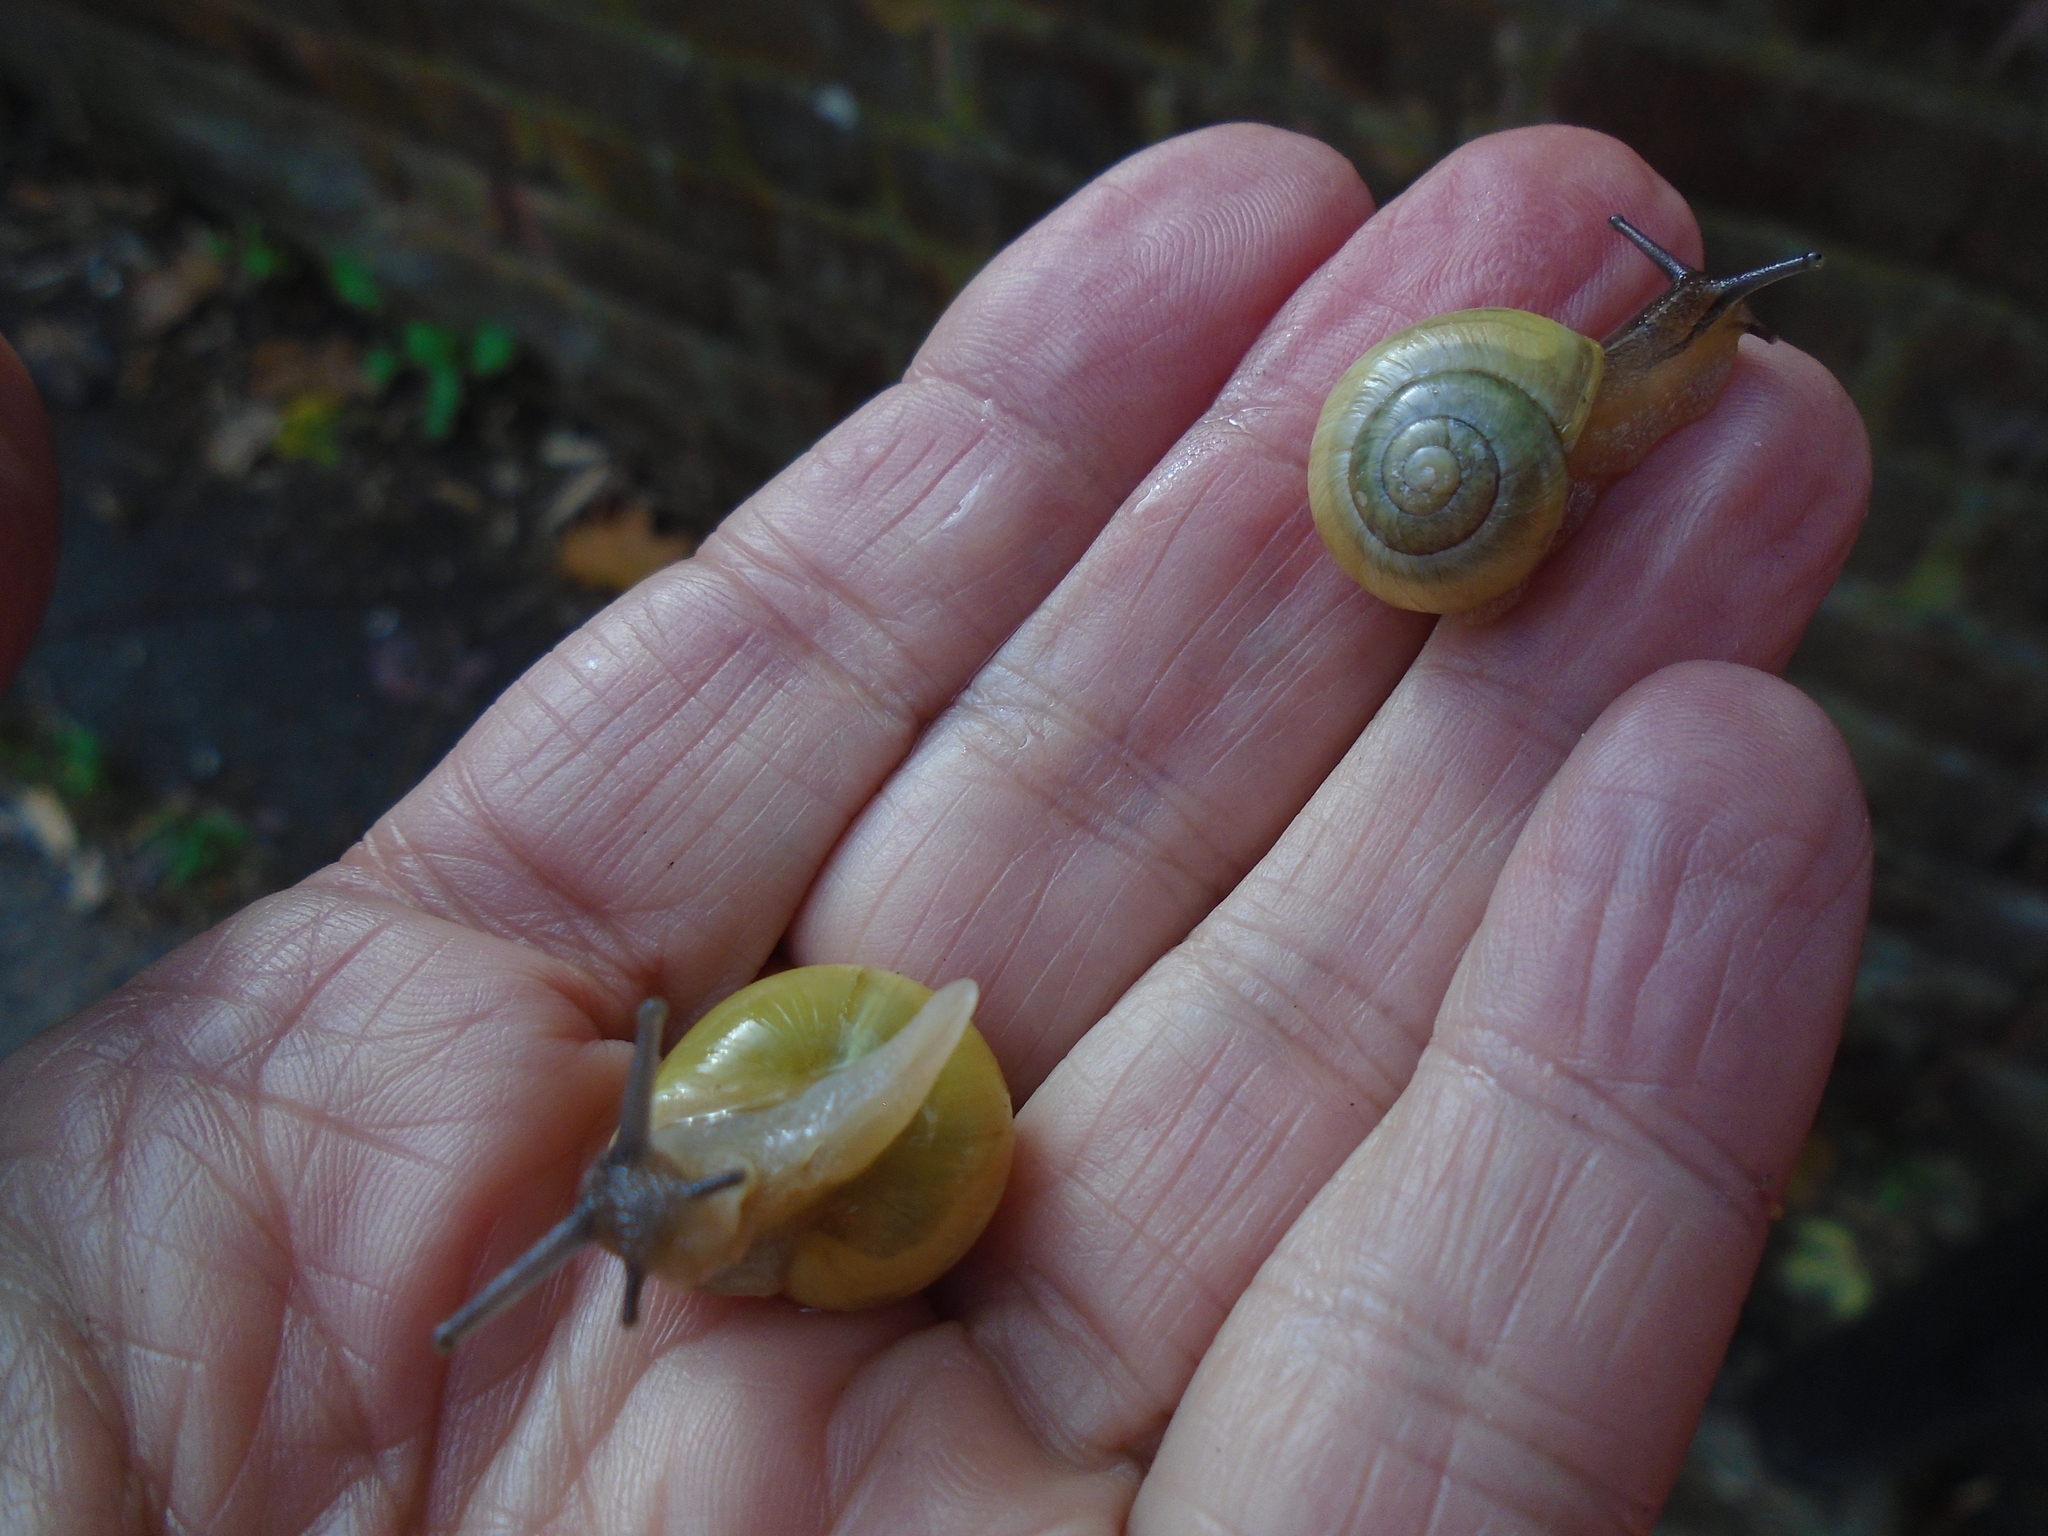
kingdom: Animalia
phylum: Mollusca
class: Gastropoda
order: Stylommatophora
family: Helicidae
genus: Cepaea
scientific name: Cepaea hortensis
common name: White-lip gardensnail
